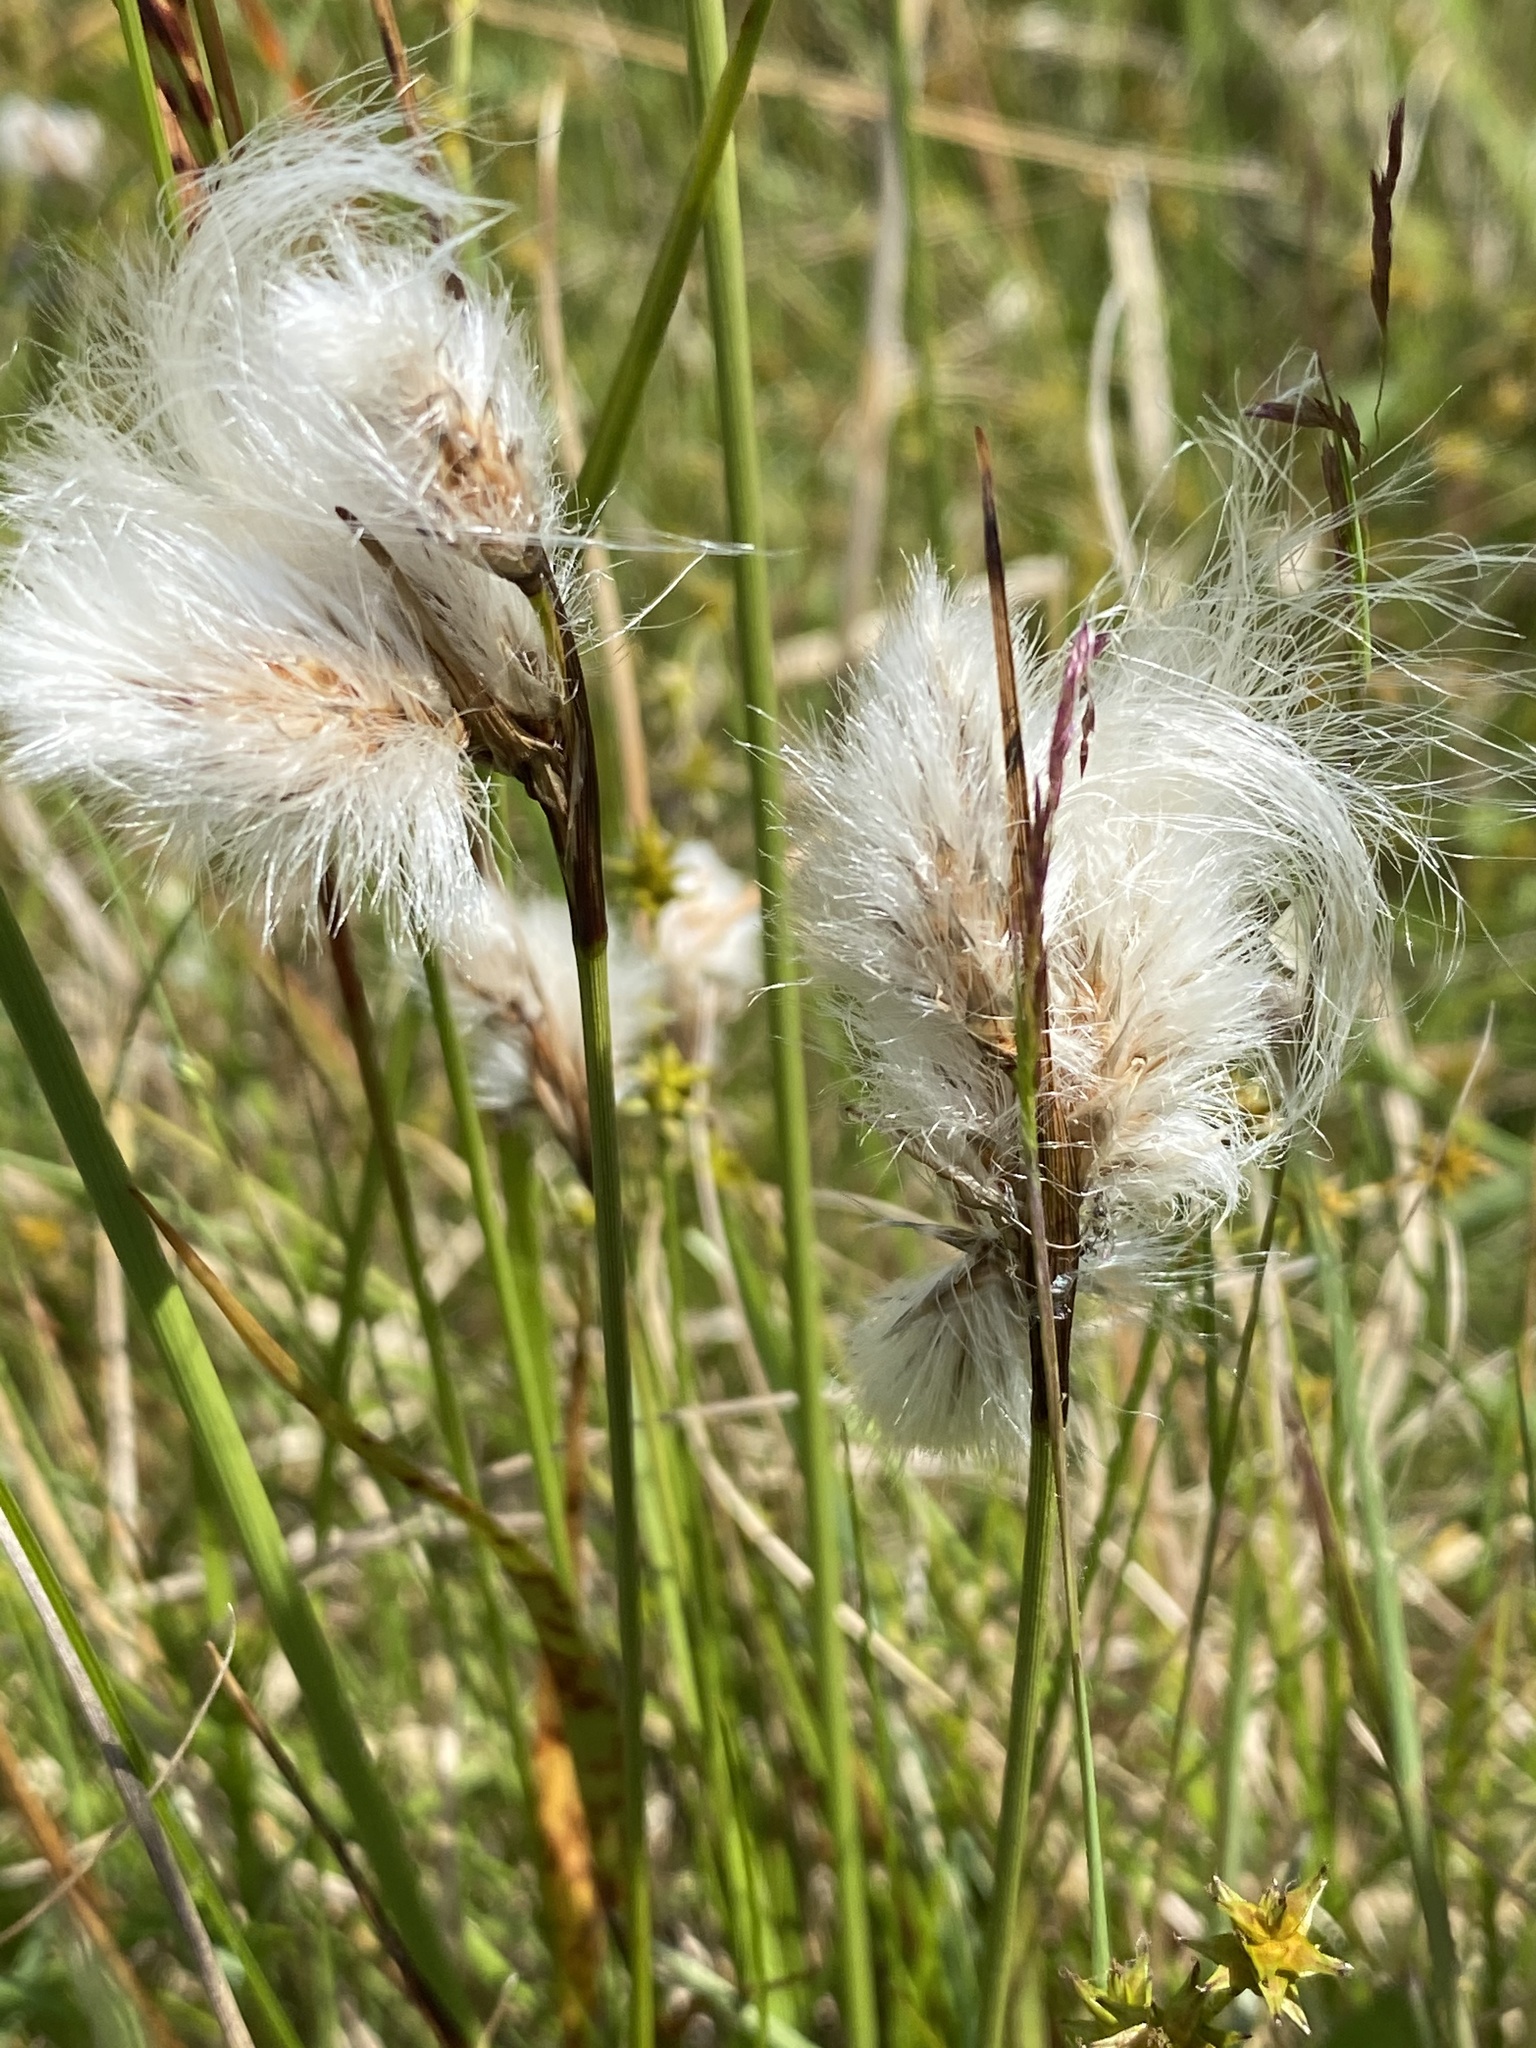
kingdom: Plantae
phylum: Tracheophyta
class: Liliopsida
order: Poales
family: Cyperaceae
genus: Eriophorum
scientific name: Eriophorum angustifolium
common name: Common cottongrass
